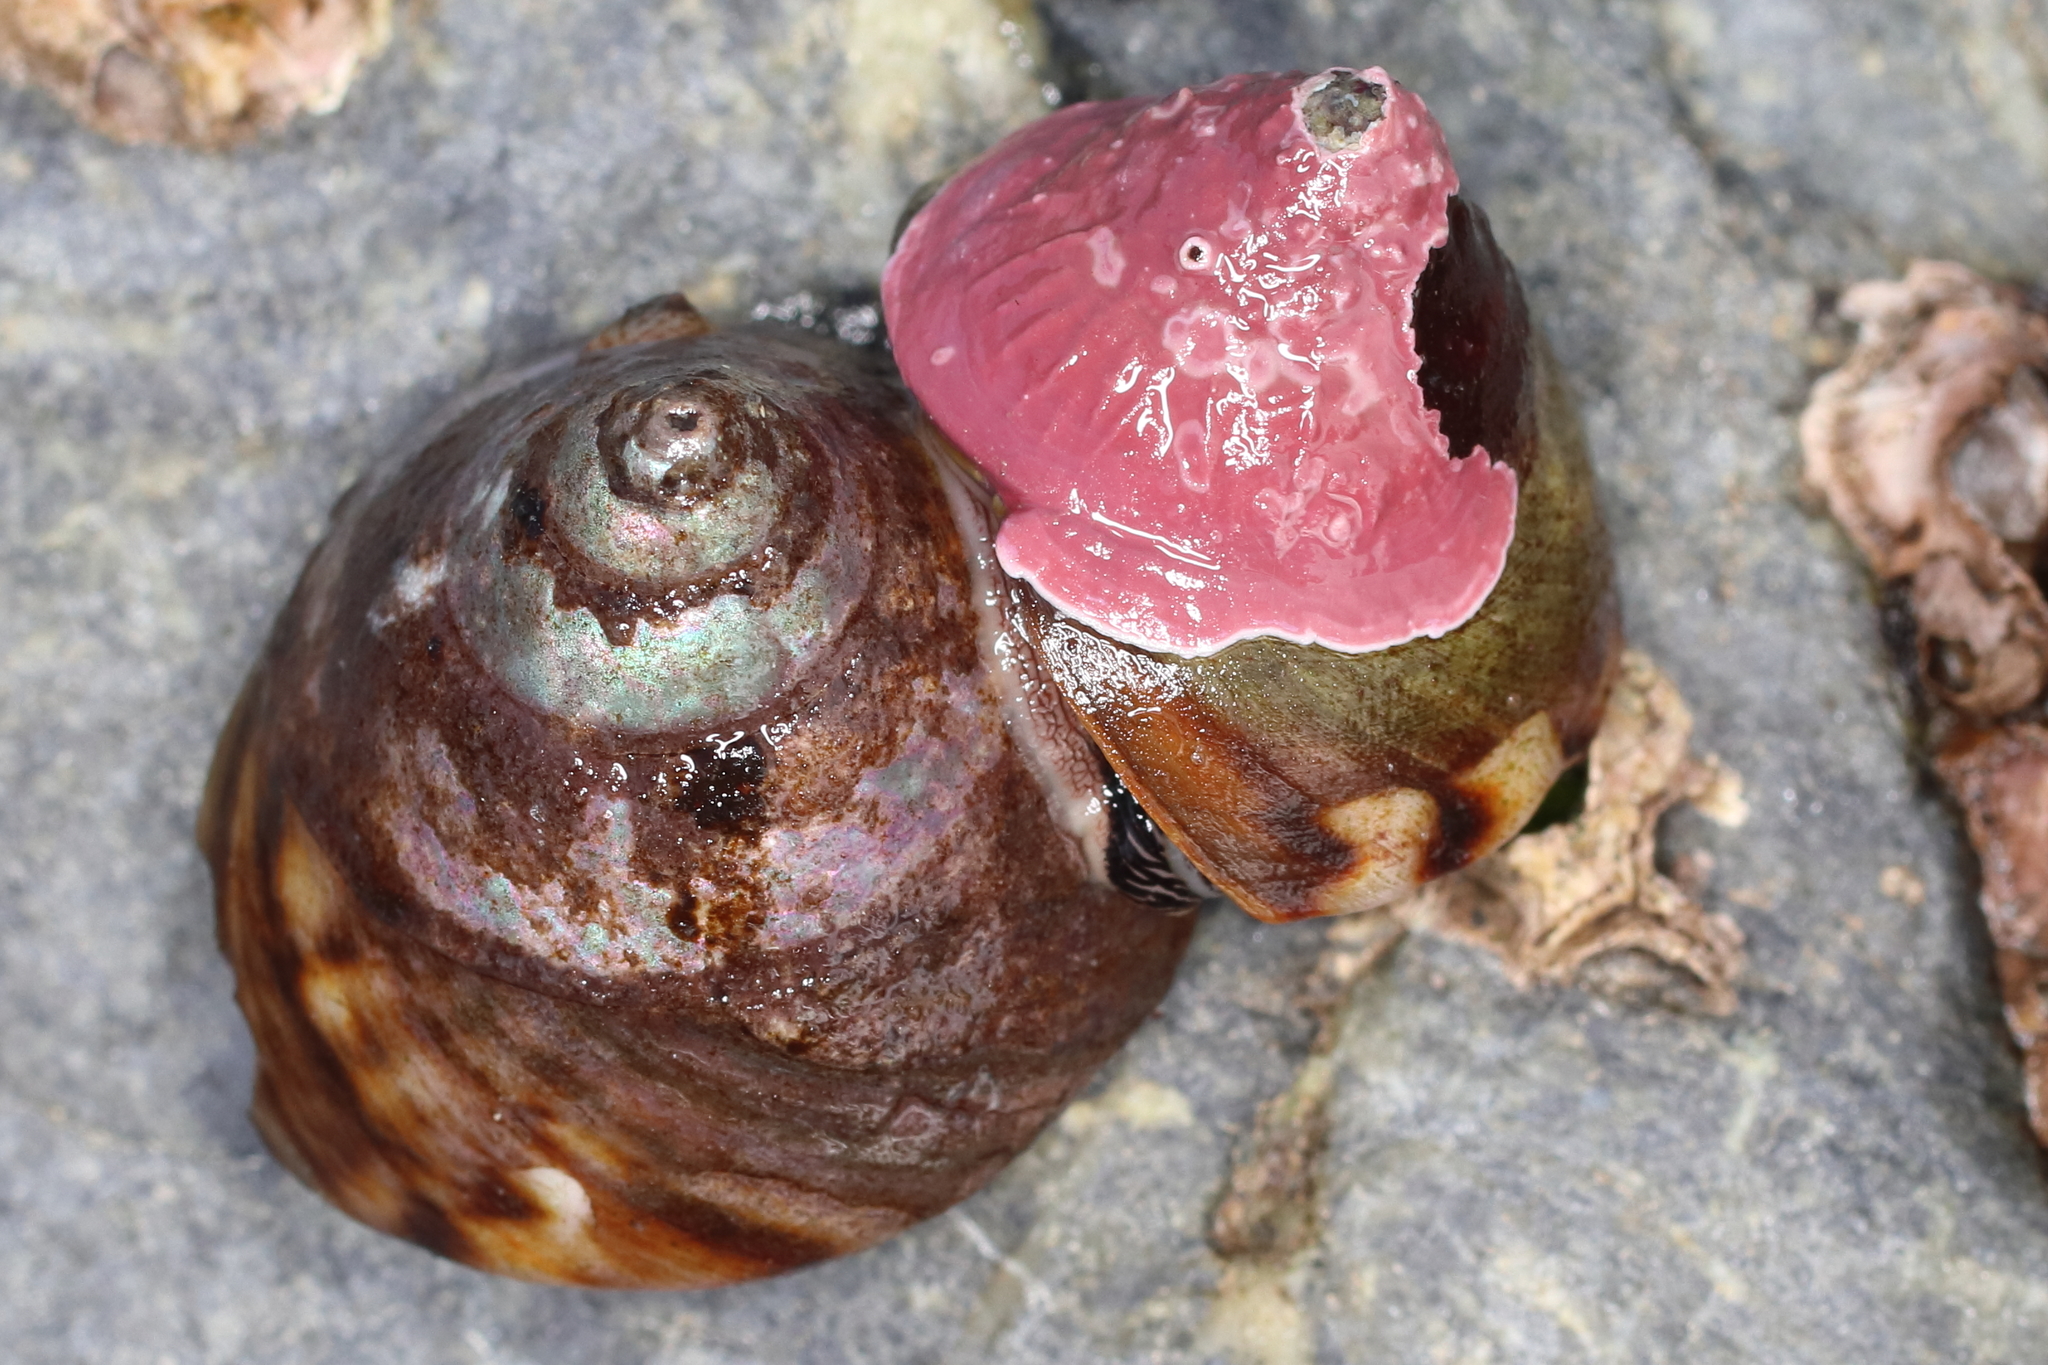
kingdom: Animalia
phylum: Mollusca
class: Gastropoda
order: Trochida
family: Tegulidae
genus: Tegula
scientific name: Tegula pulligo
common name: Brown turban
